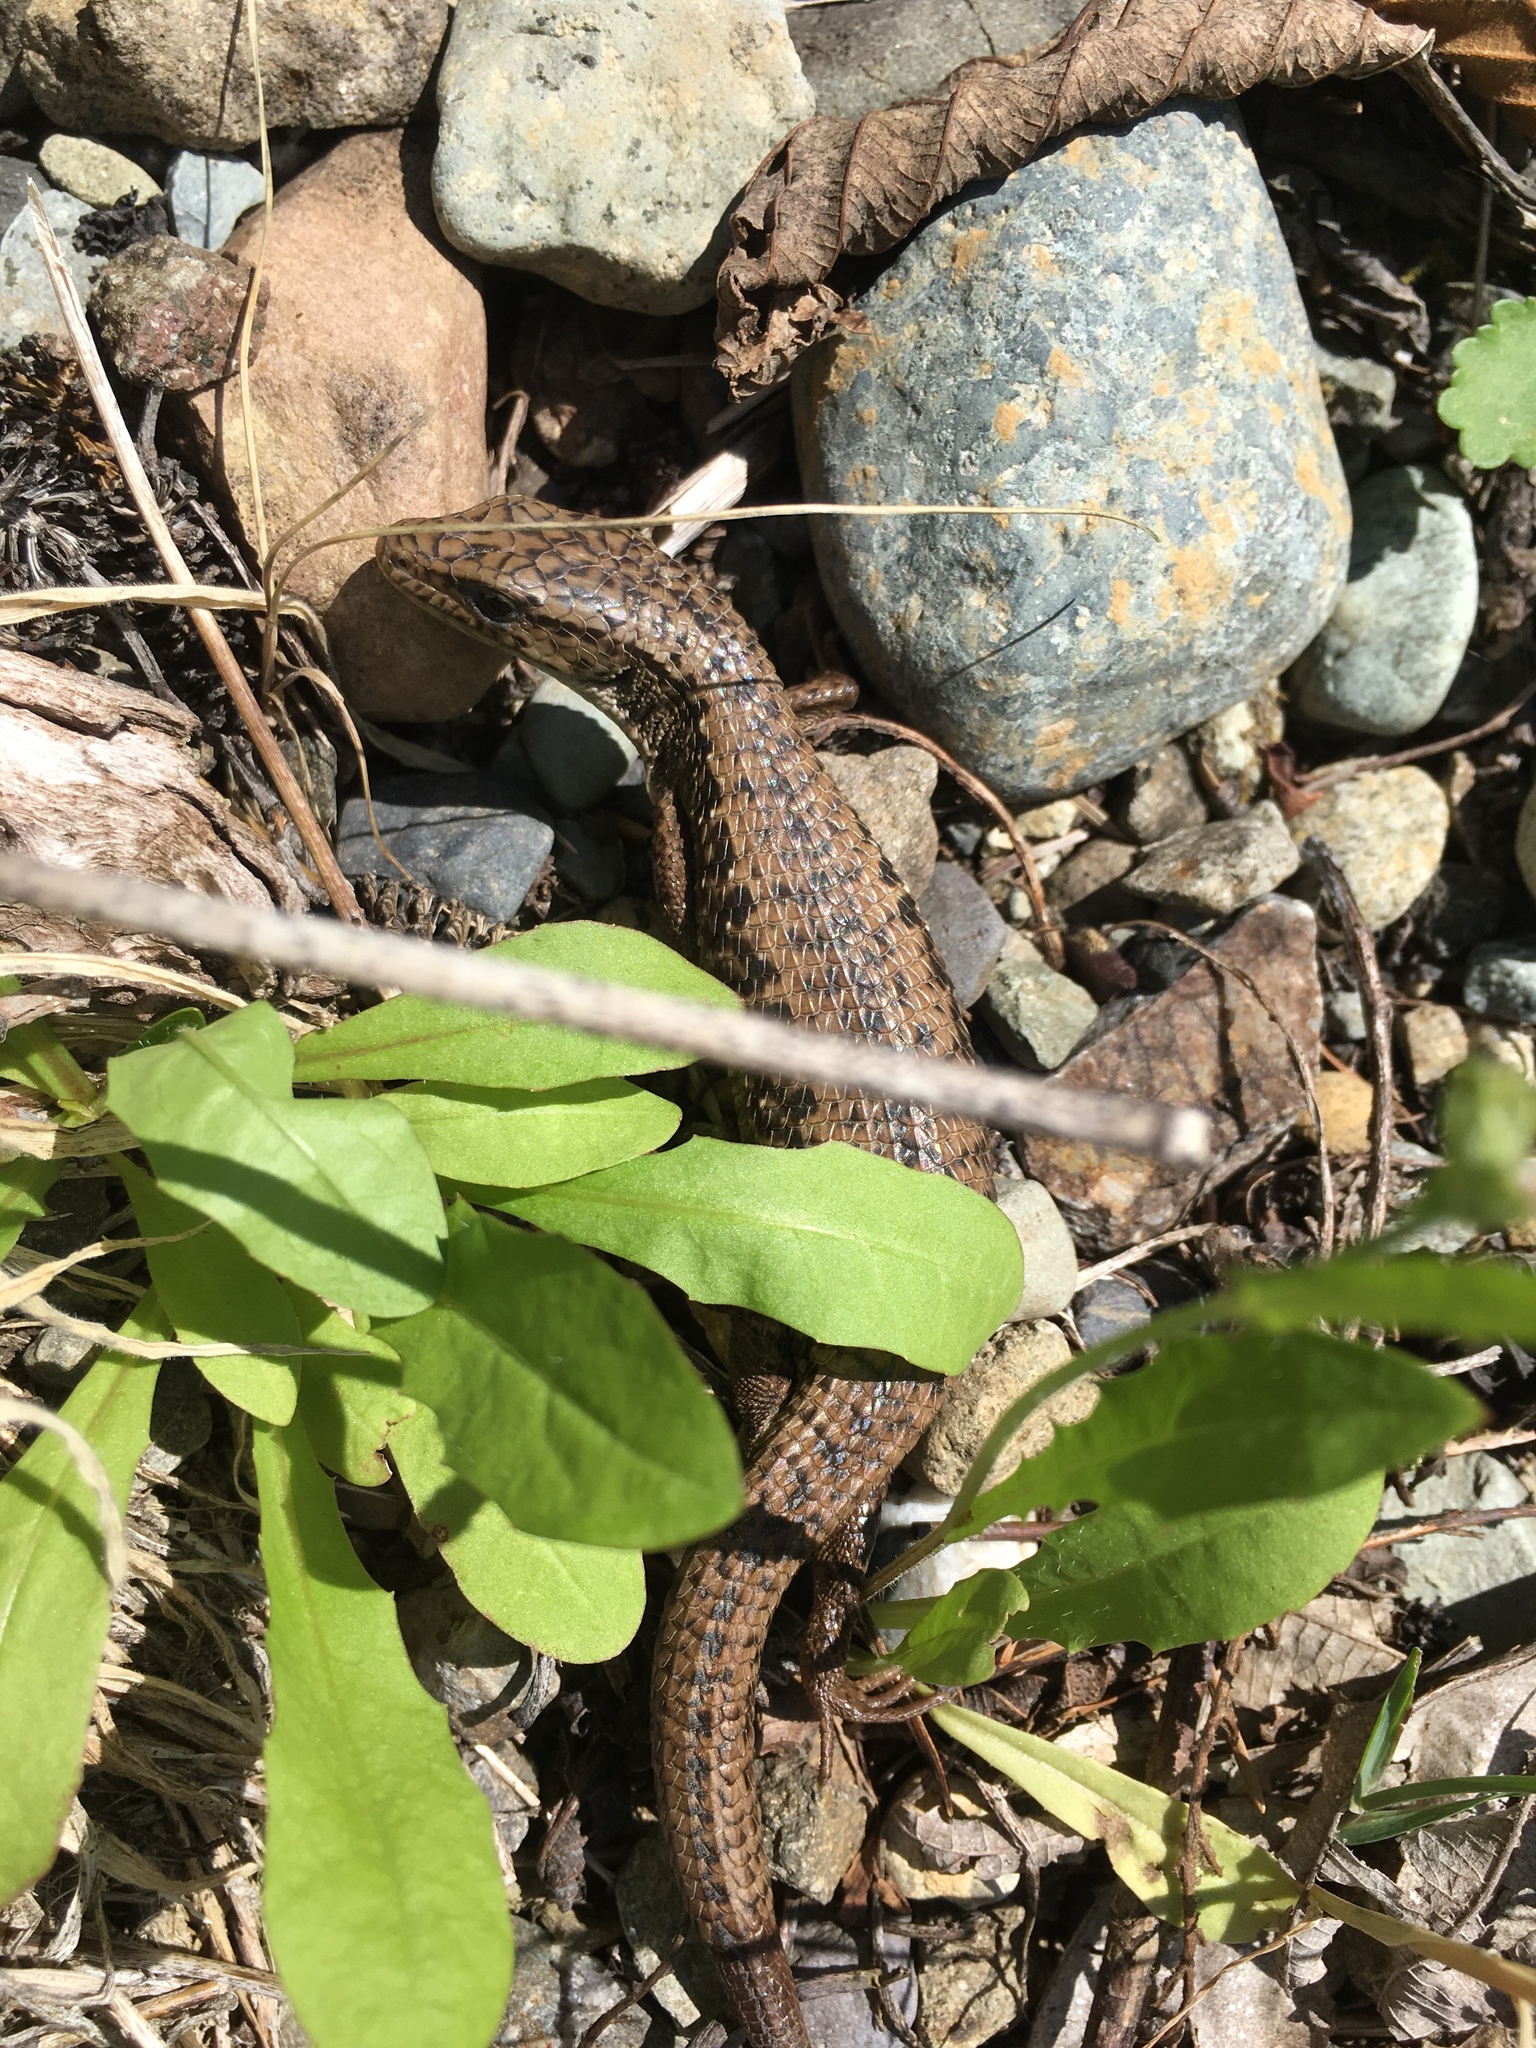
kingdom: Animalia
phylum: Chordata
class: Squamata
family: Anguidae
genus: Elgaria
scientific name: Elgaria coerulea
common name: Northern alligator lizard
